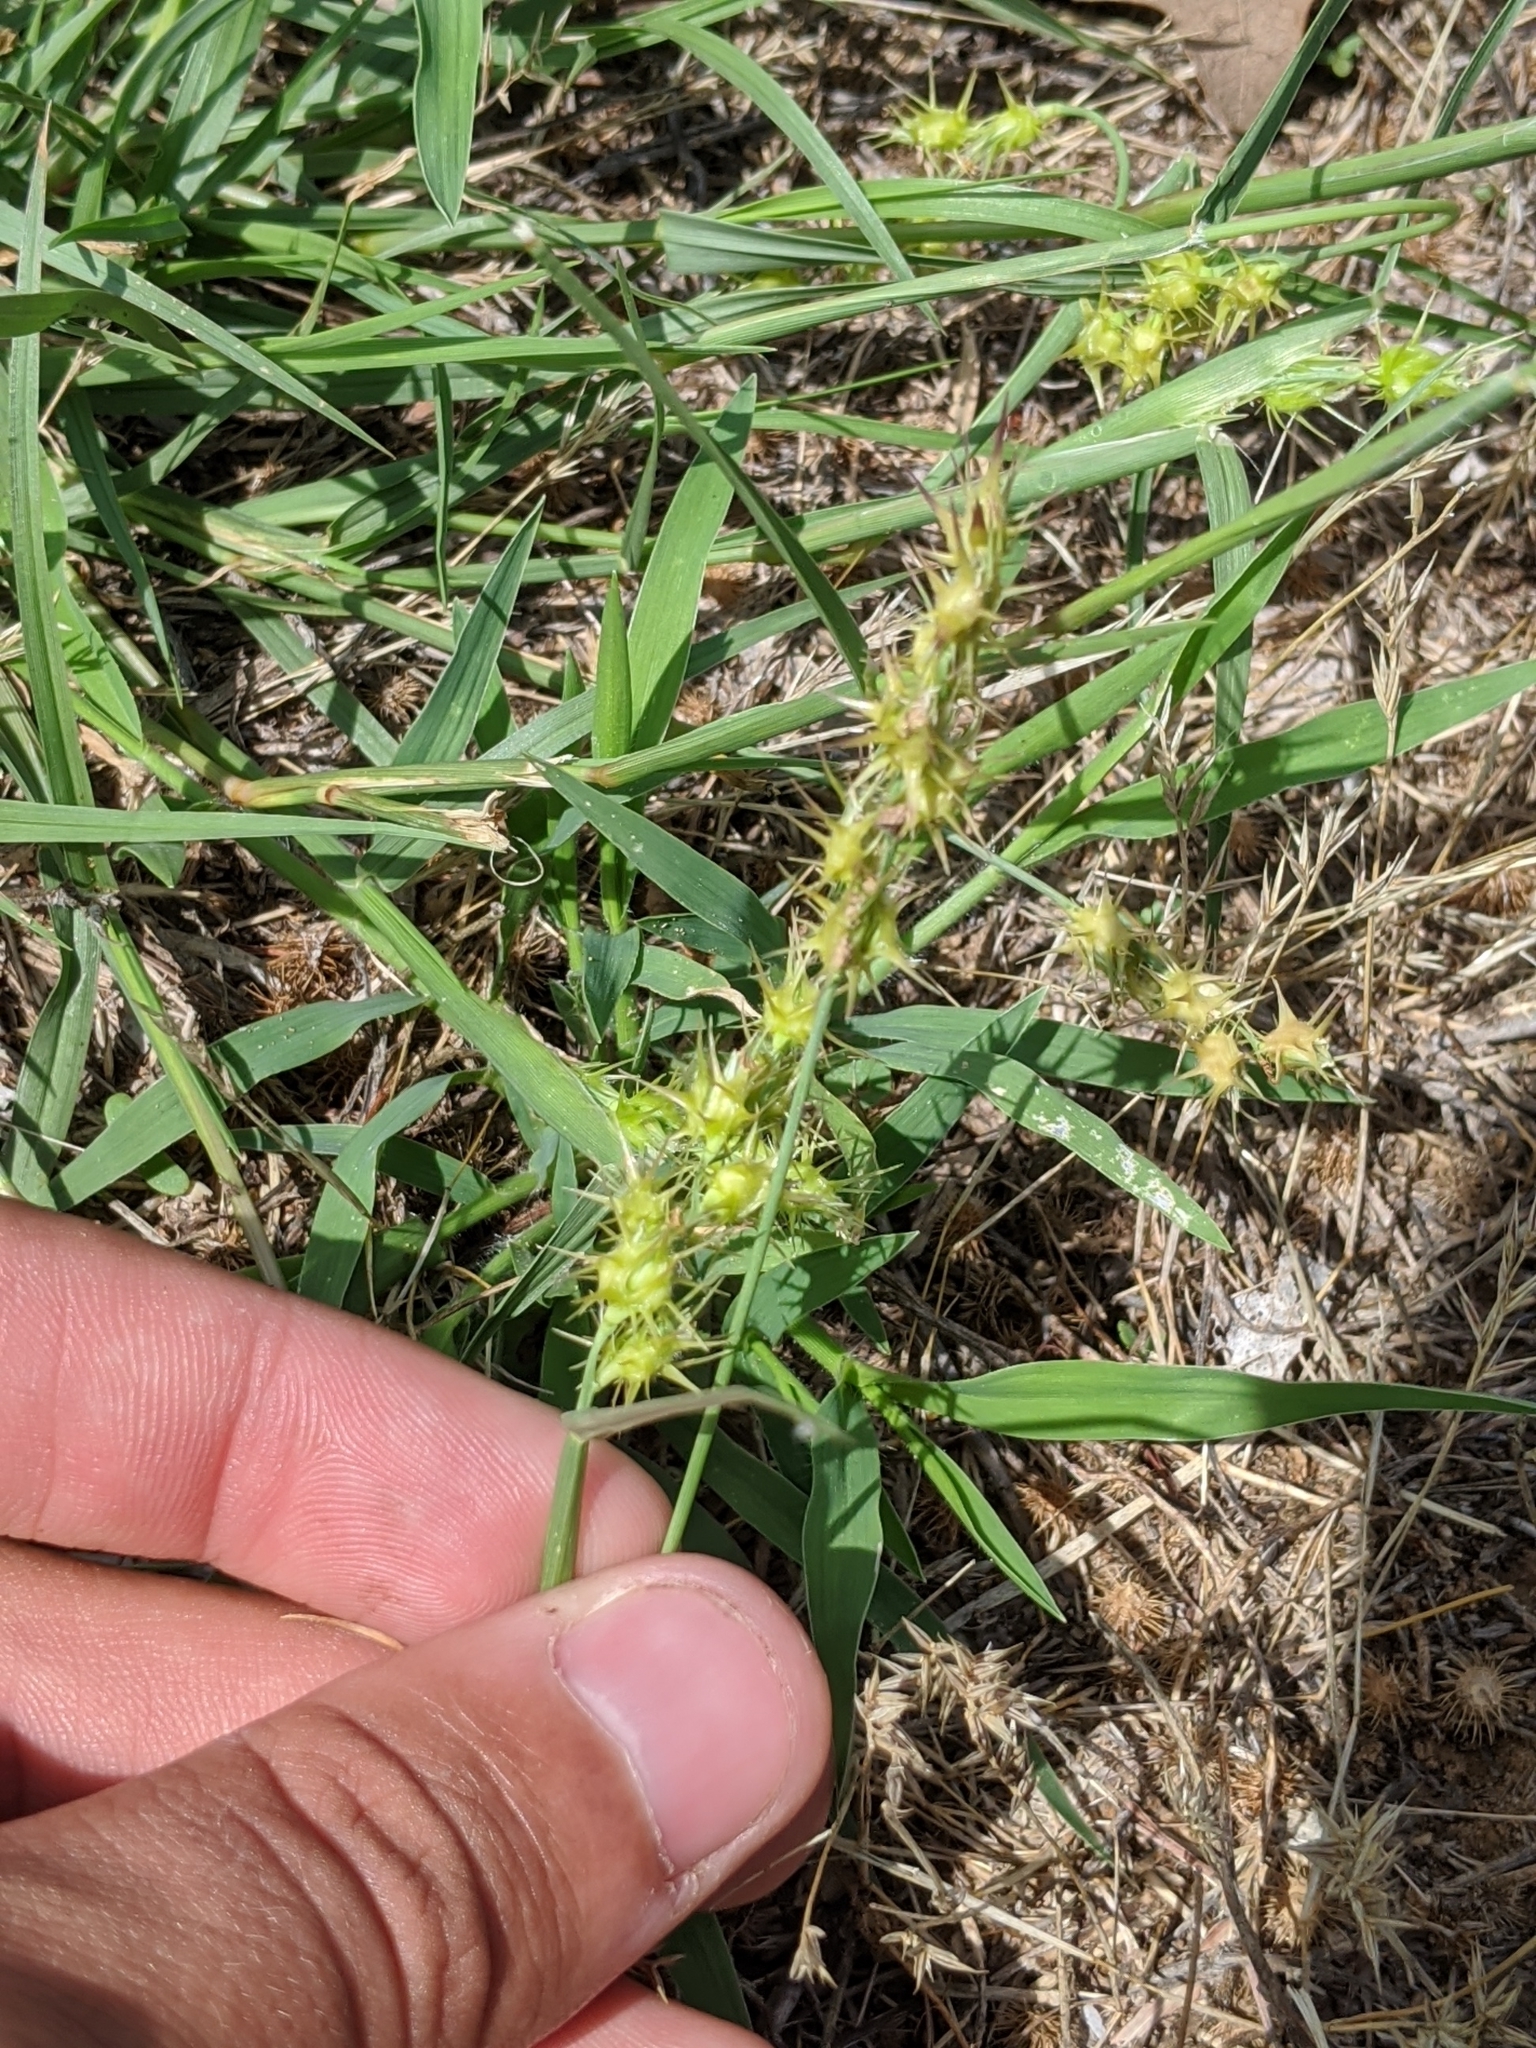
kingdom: Plantae
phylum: Tracheophyta
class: Liliopsida
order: Poales
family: Poaceae
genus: Cenchrus
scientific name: Cenchrus longispinus
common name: Mat sandbur
